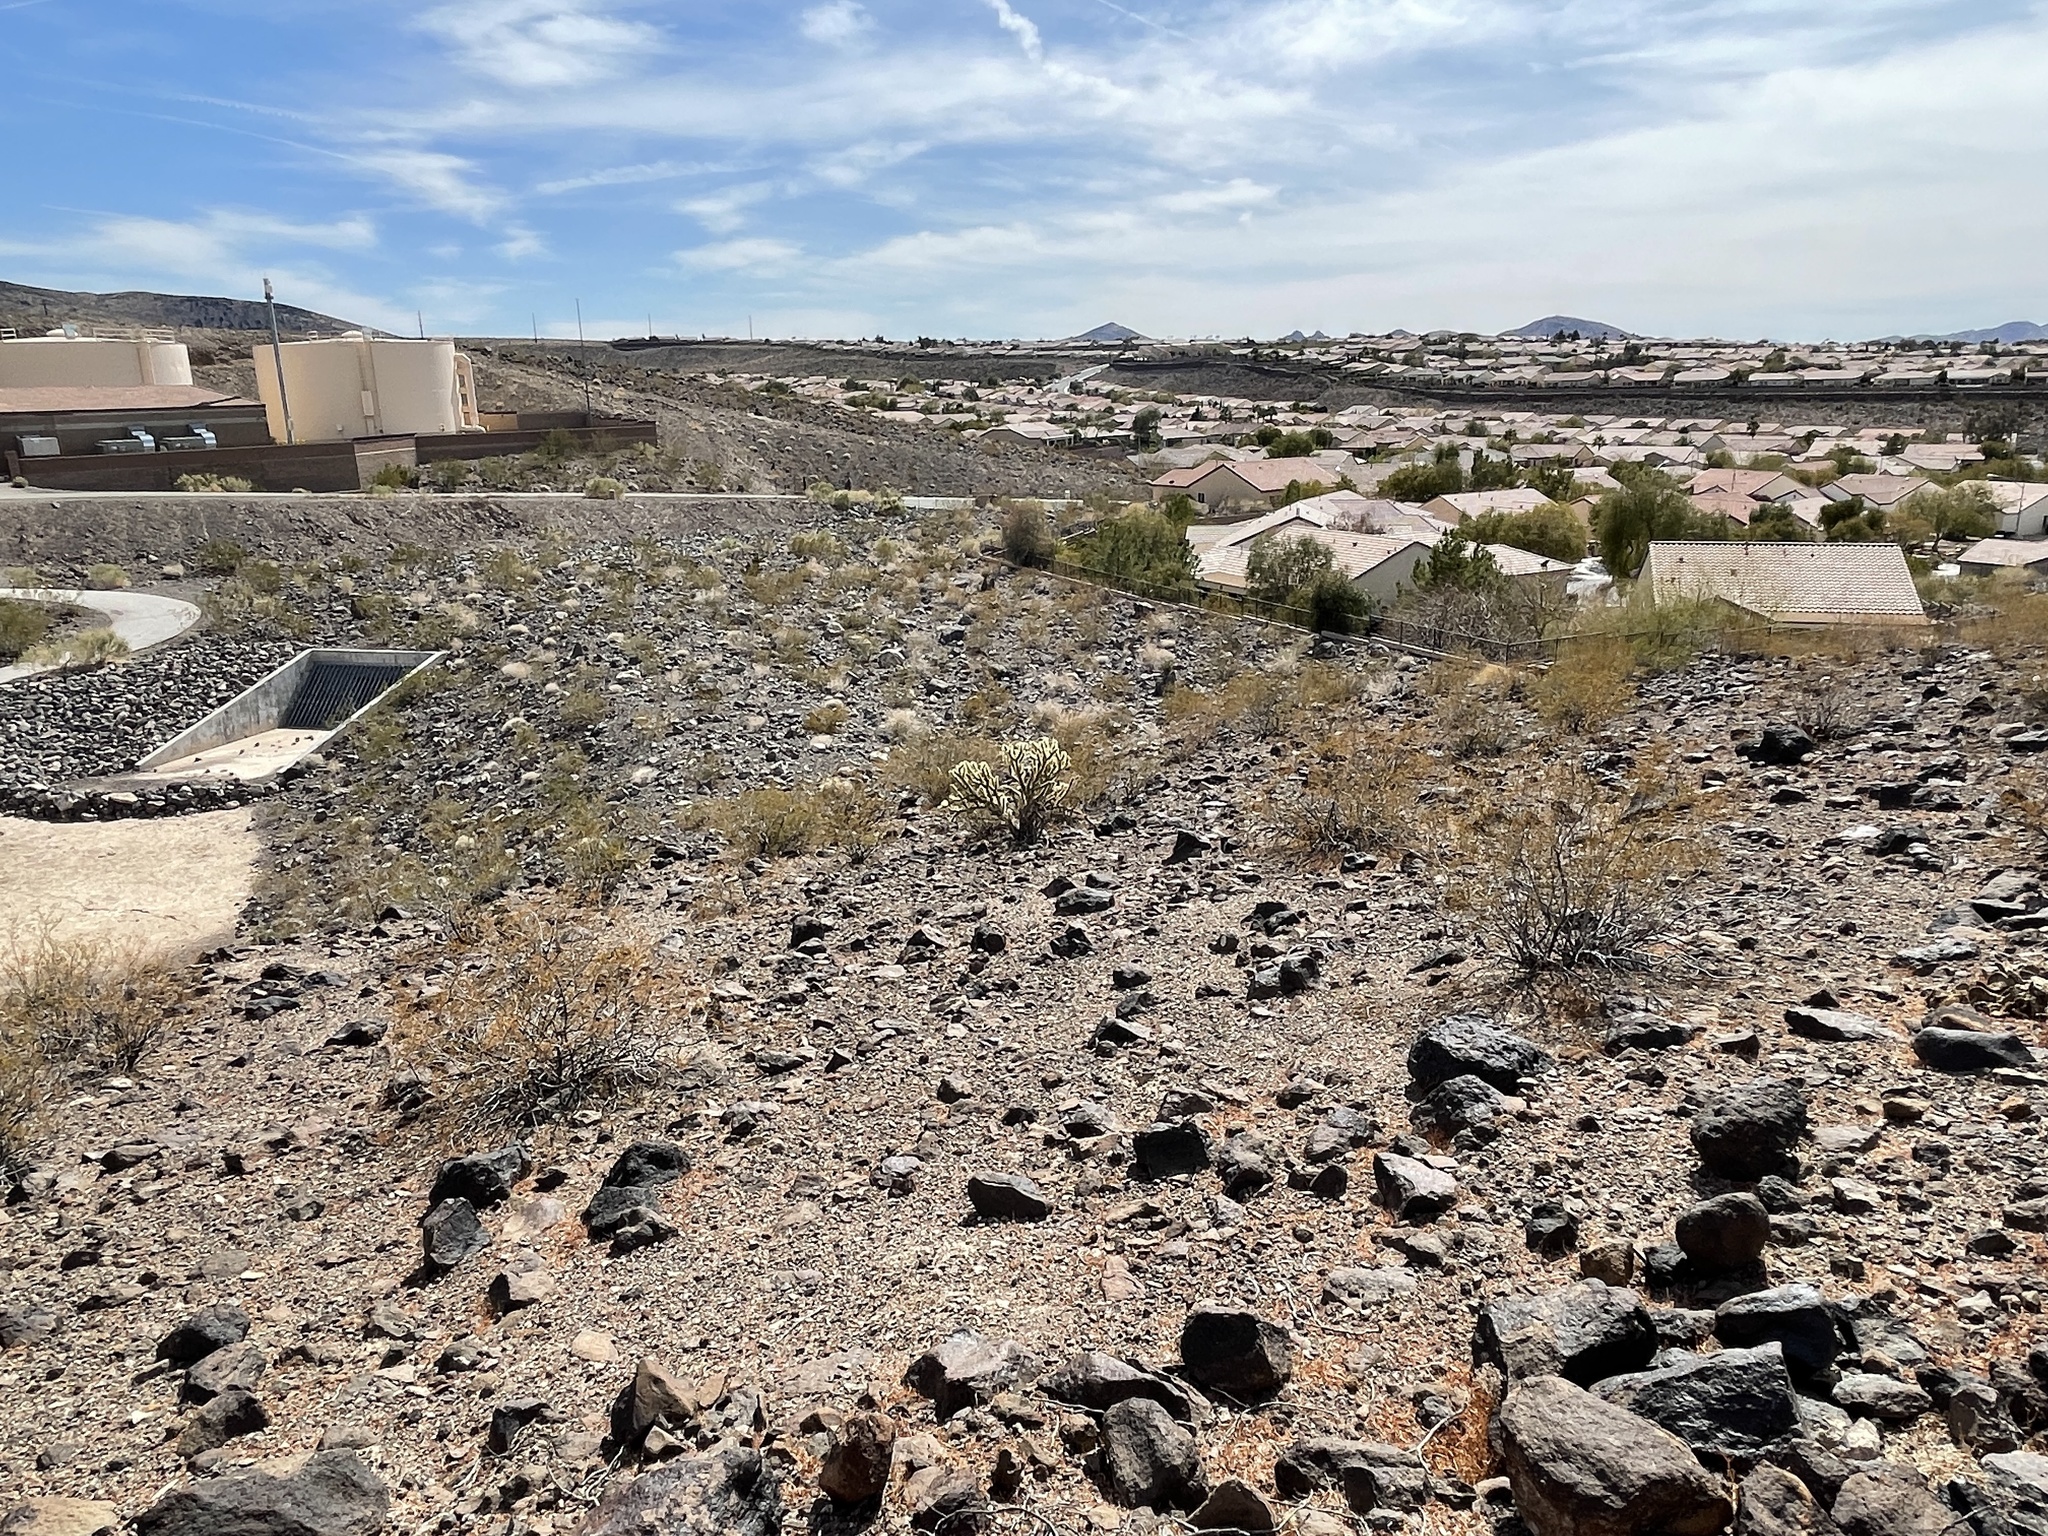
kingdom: Plantae
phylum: Tracheophyta
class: Magnoliopsida
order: Zygophyllales
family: Zygophyllaceae
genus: Larrea
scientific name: Larrea tridentata
